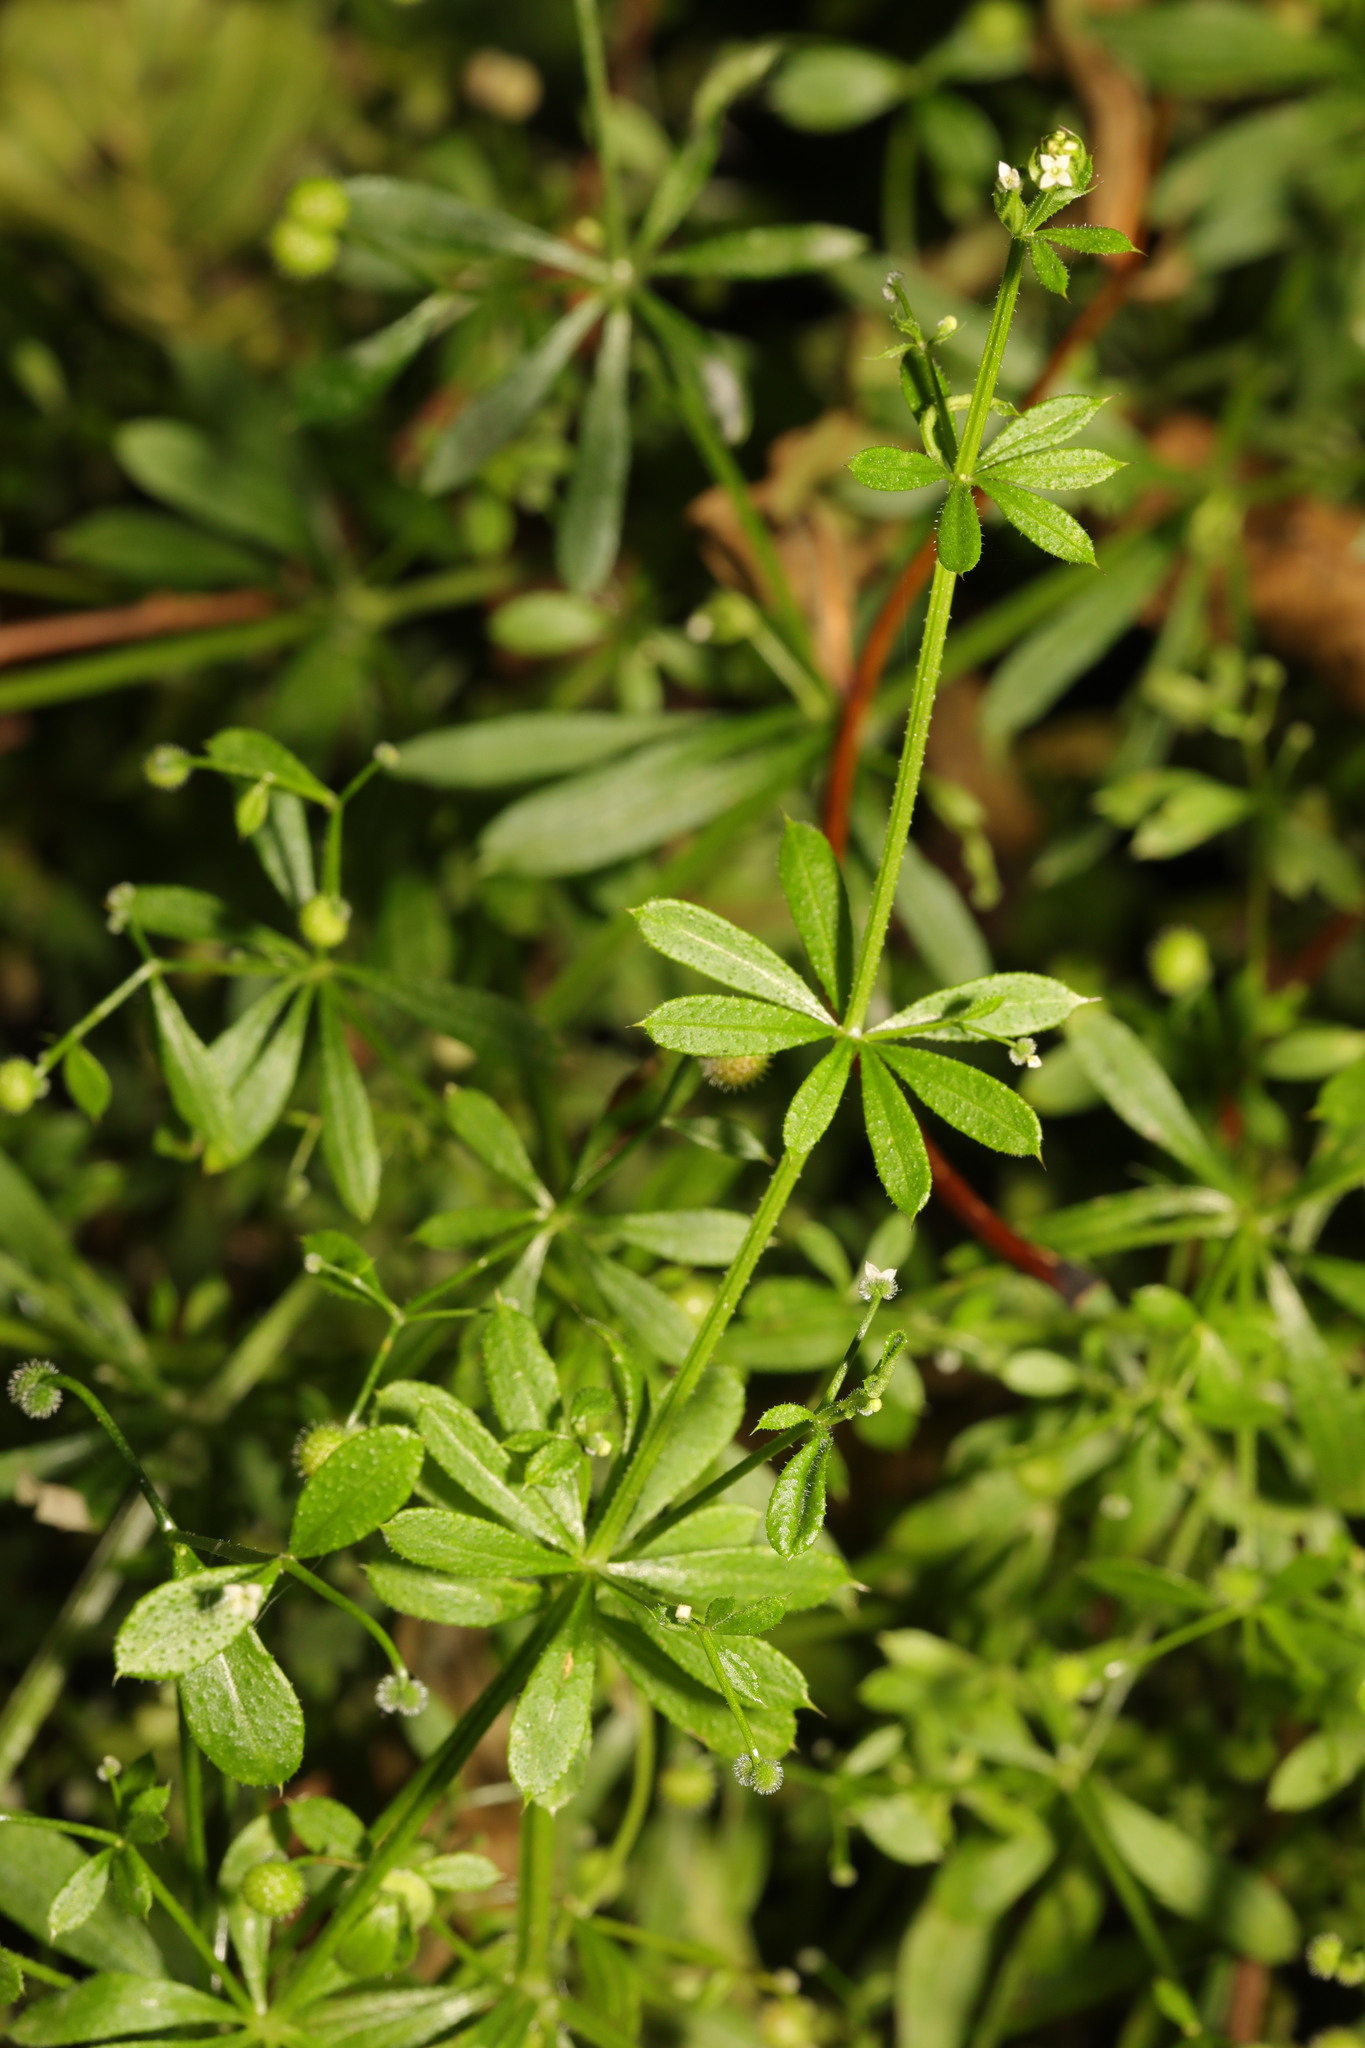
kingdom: Plantae
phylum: Tracheophyta
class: Magnoliopsida
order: Gentianales
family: Rubiaceae
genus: Galium
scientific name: Galium aparine
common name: Cleavers
